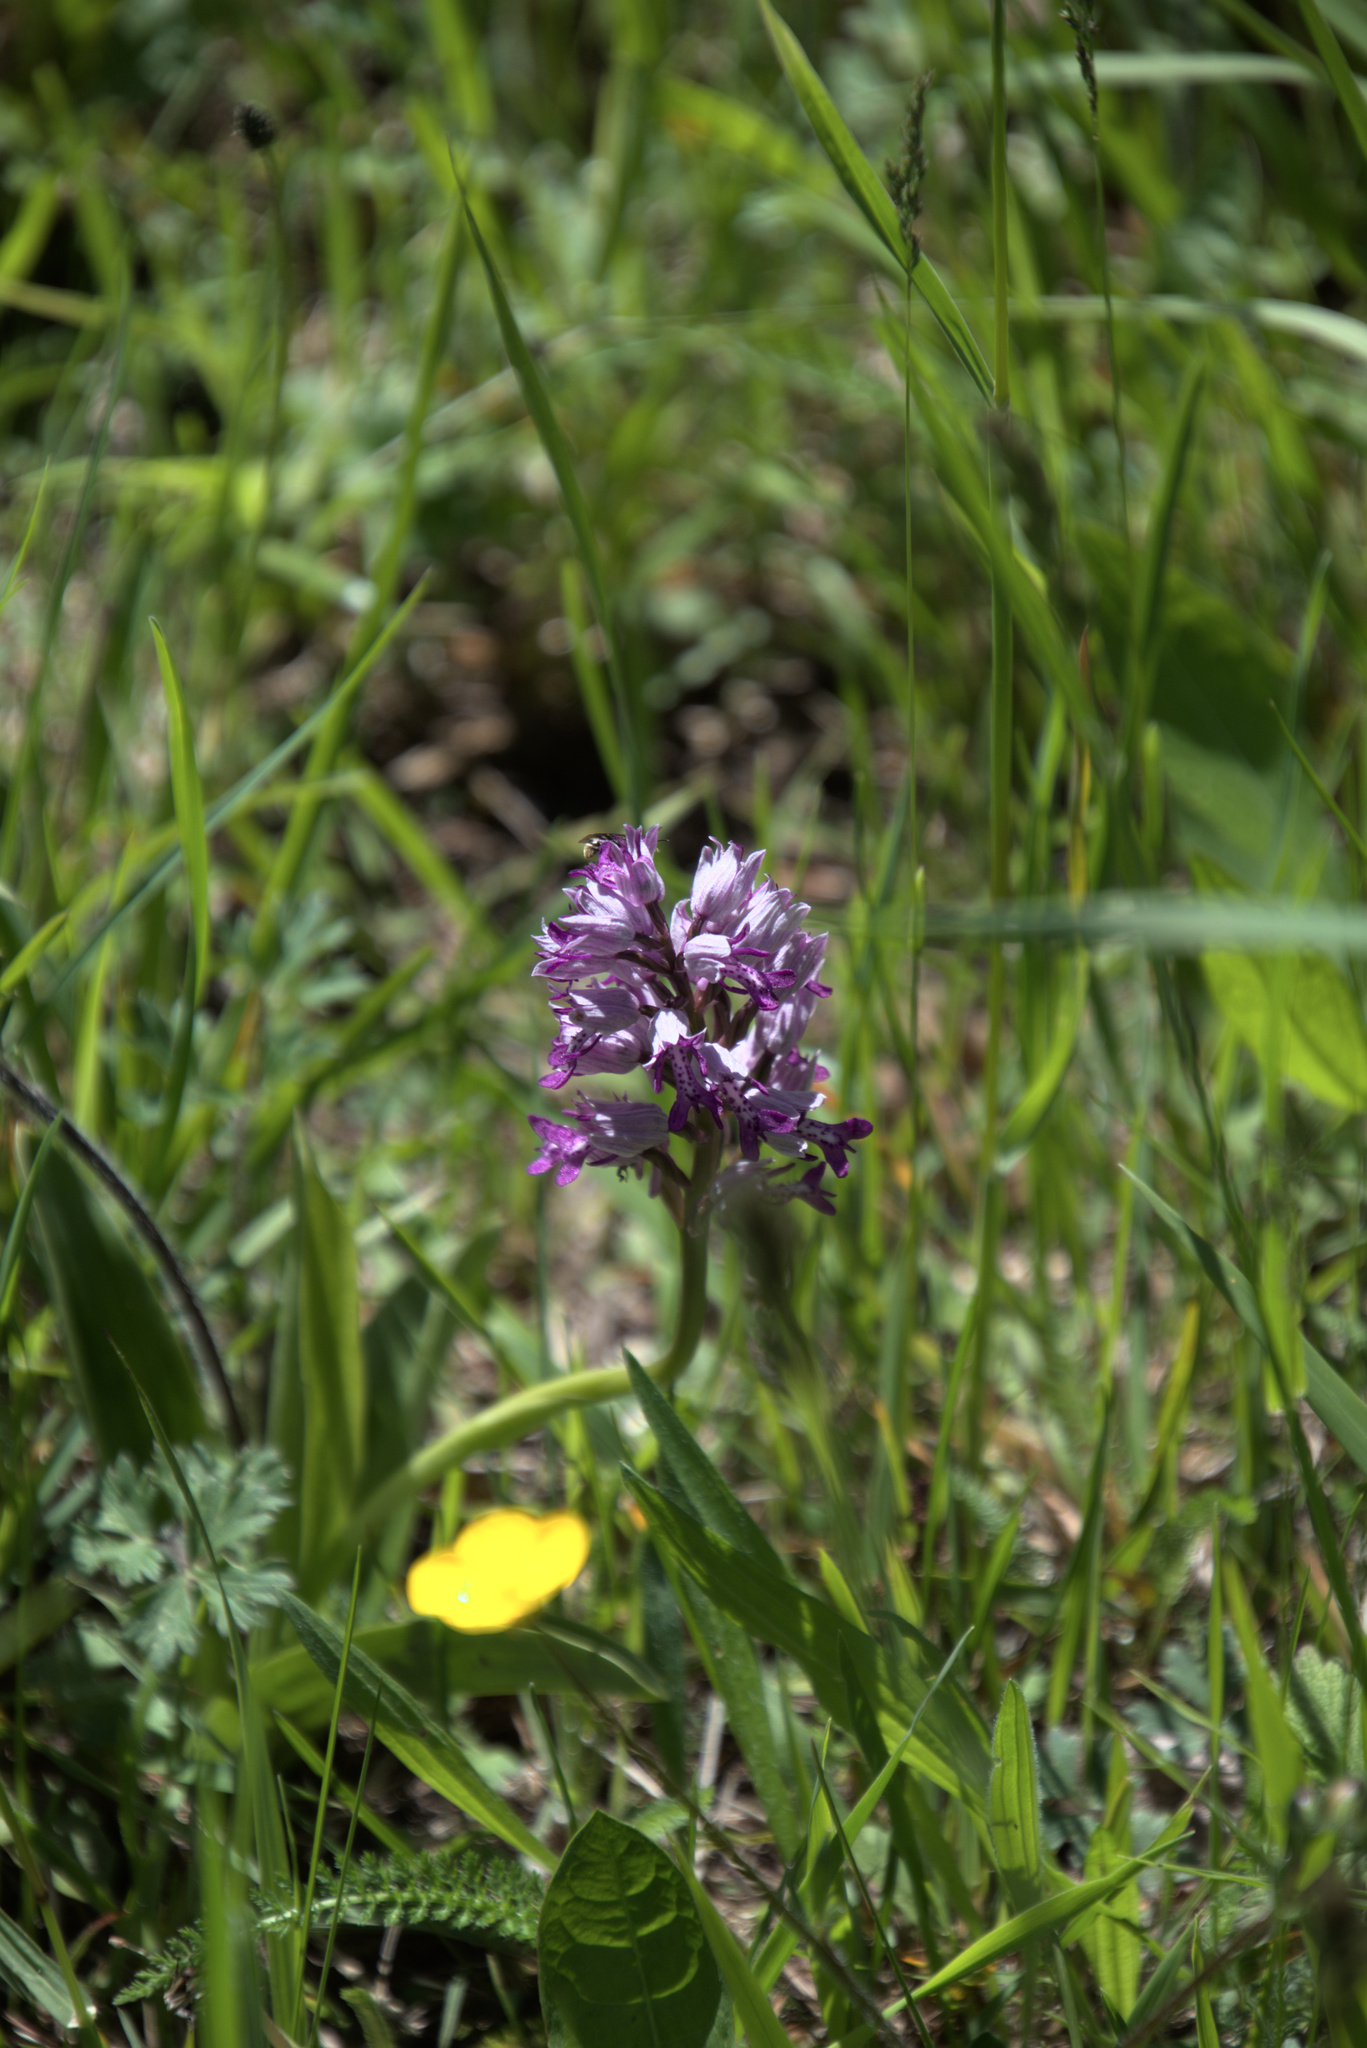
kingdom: Plantae
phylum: Tracheophyta
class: Liliopsida
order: Asparagales
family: Orchidaceae
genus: Orchis
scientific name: Orchis militaris
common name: Military orchid
